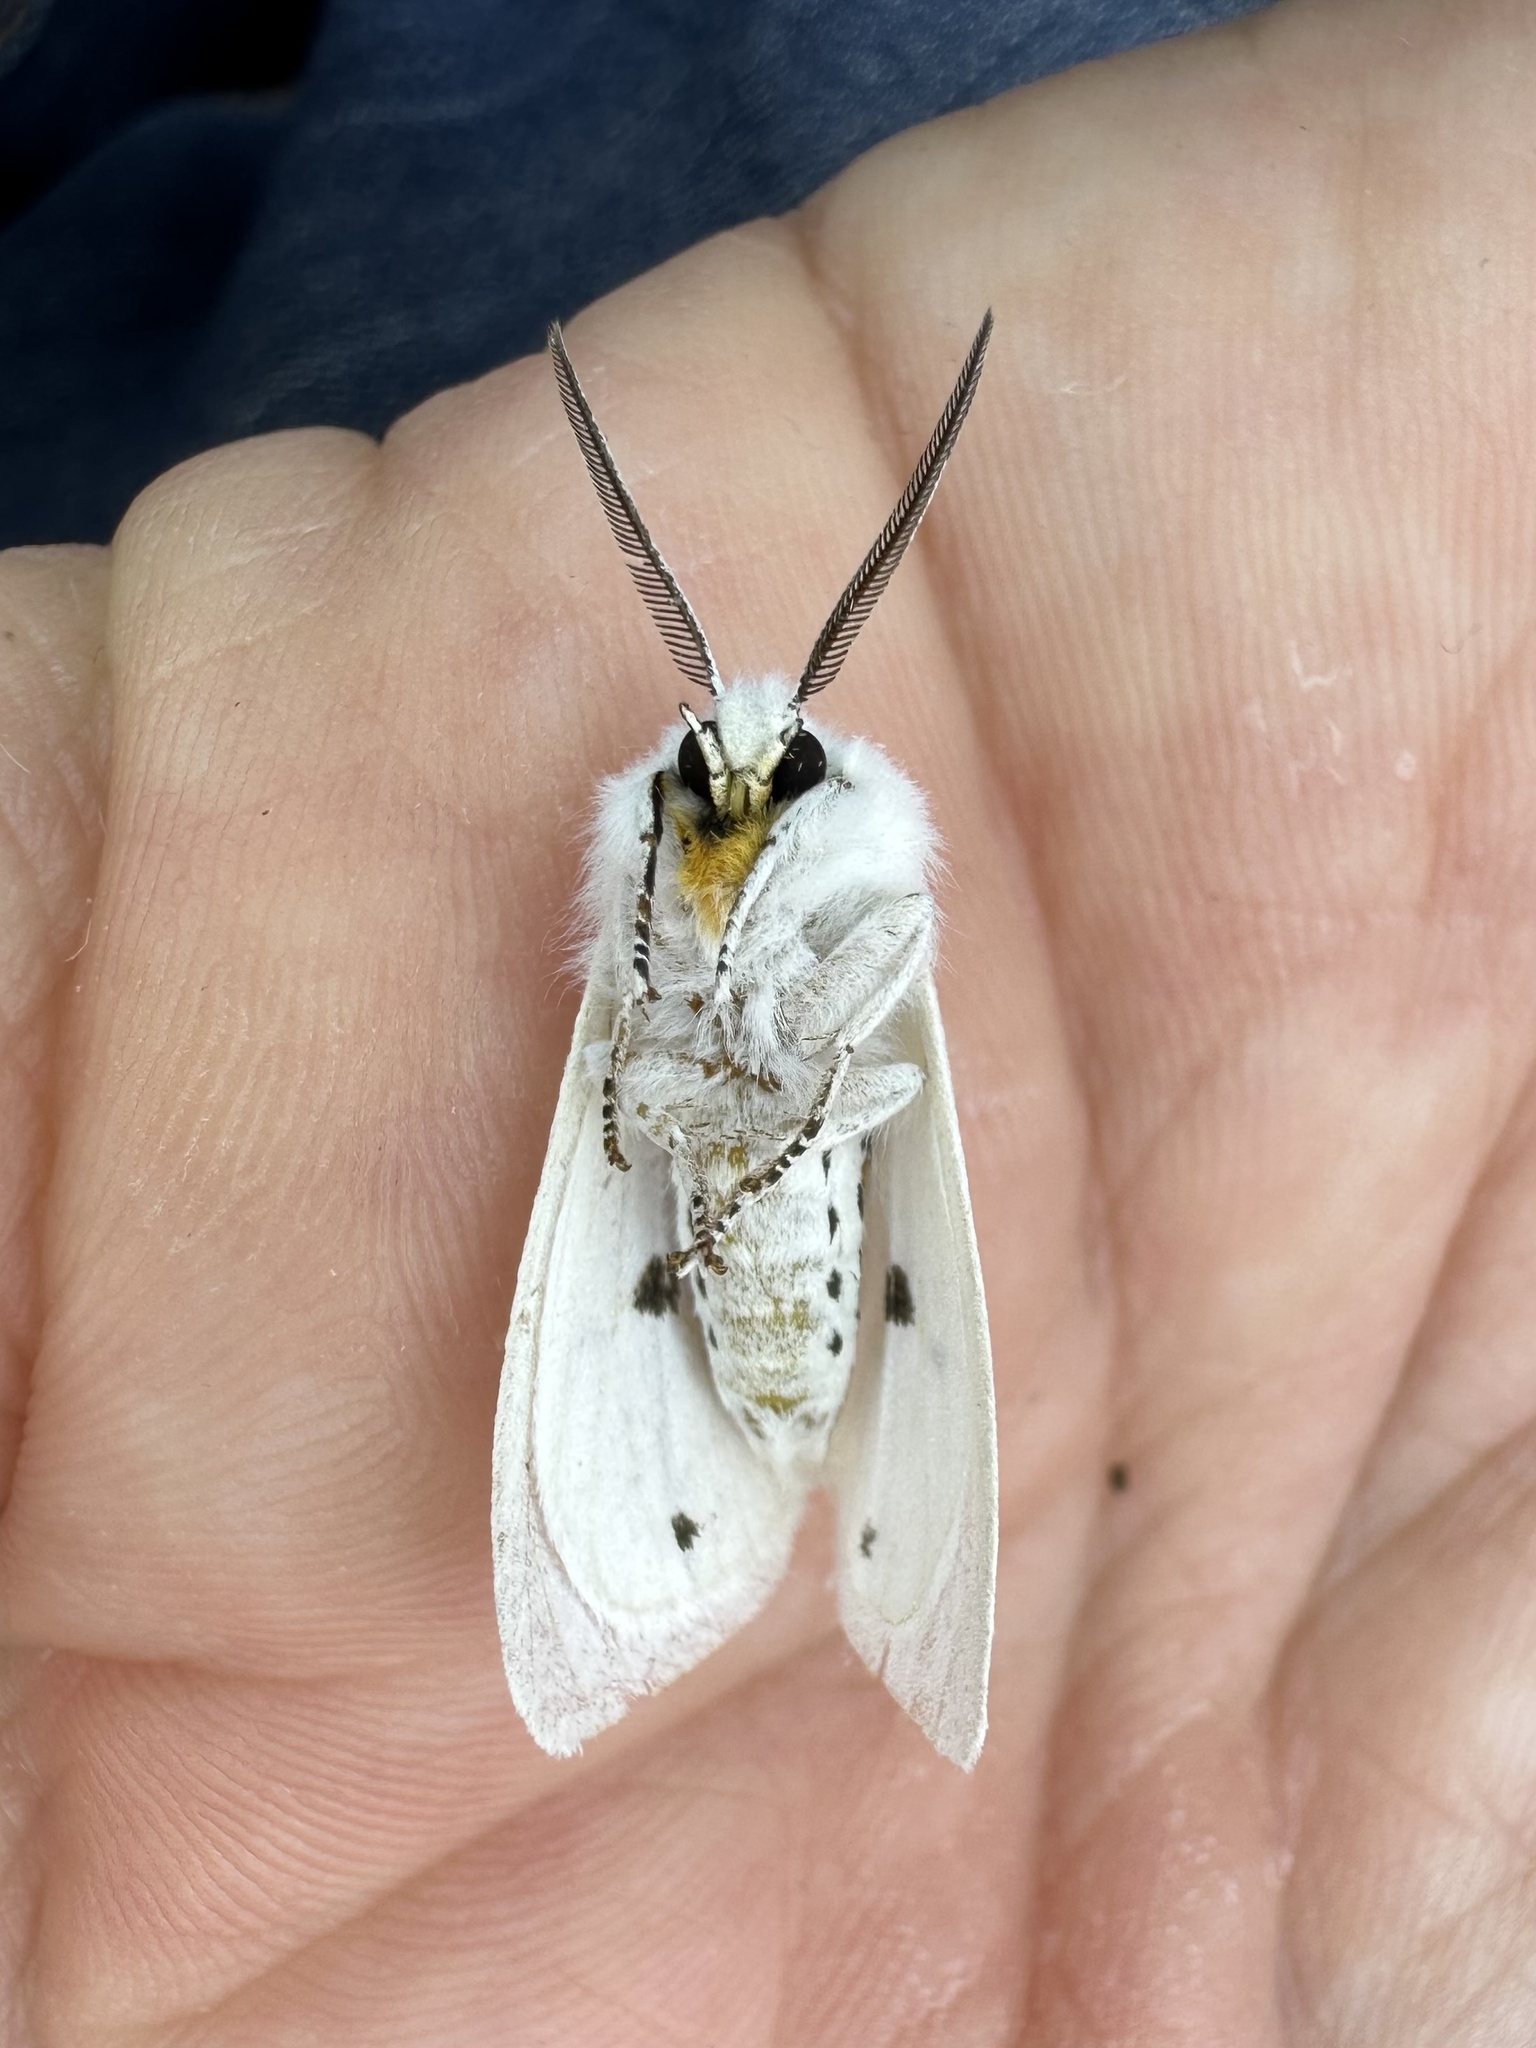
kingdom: Animalia
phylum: Arthropoda
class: Insecta
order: Lepidoptera
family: Erebidae
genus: Spilosoma
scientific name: Spilosoma virginica
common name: Virginia tiger moth
